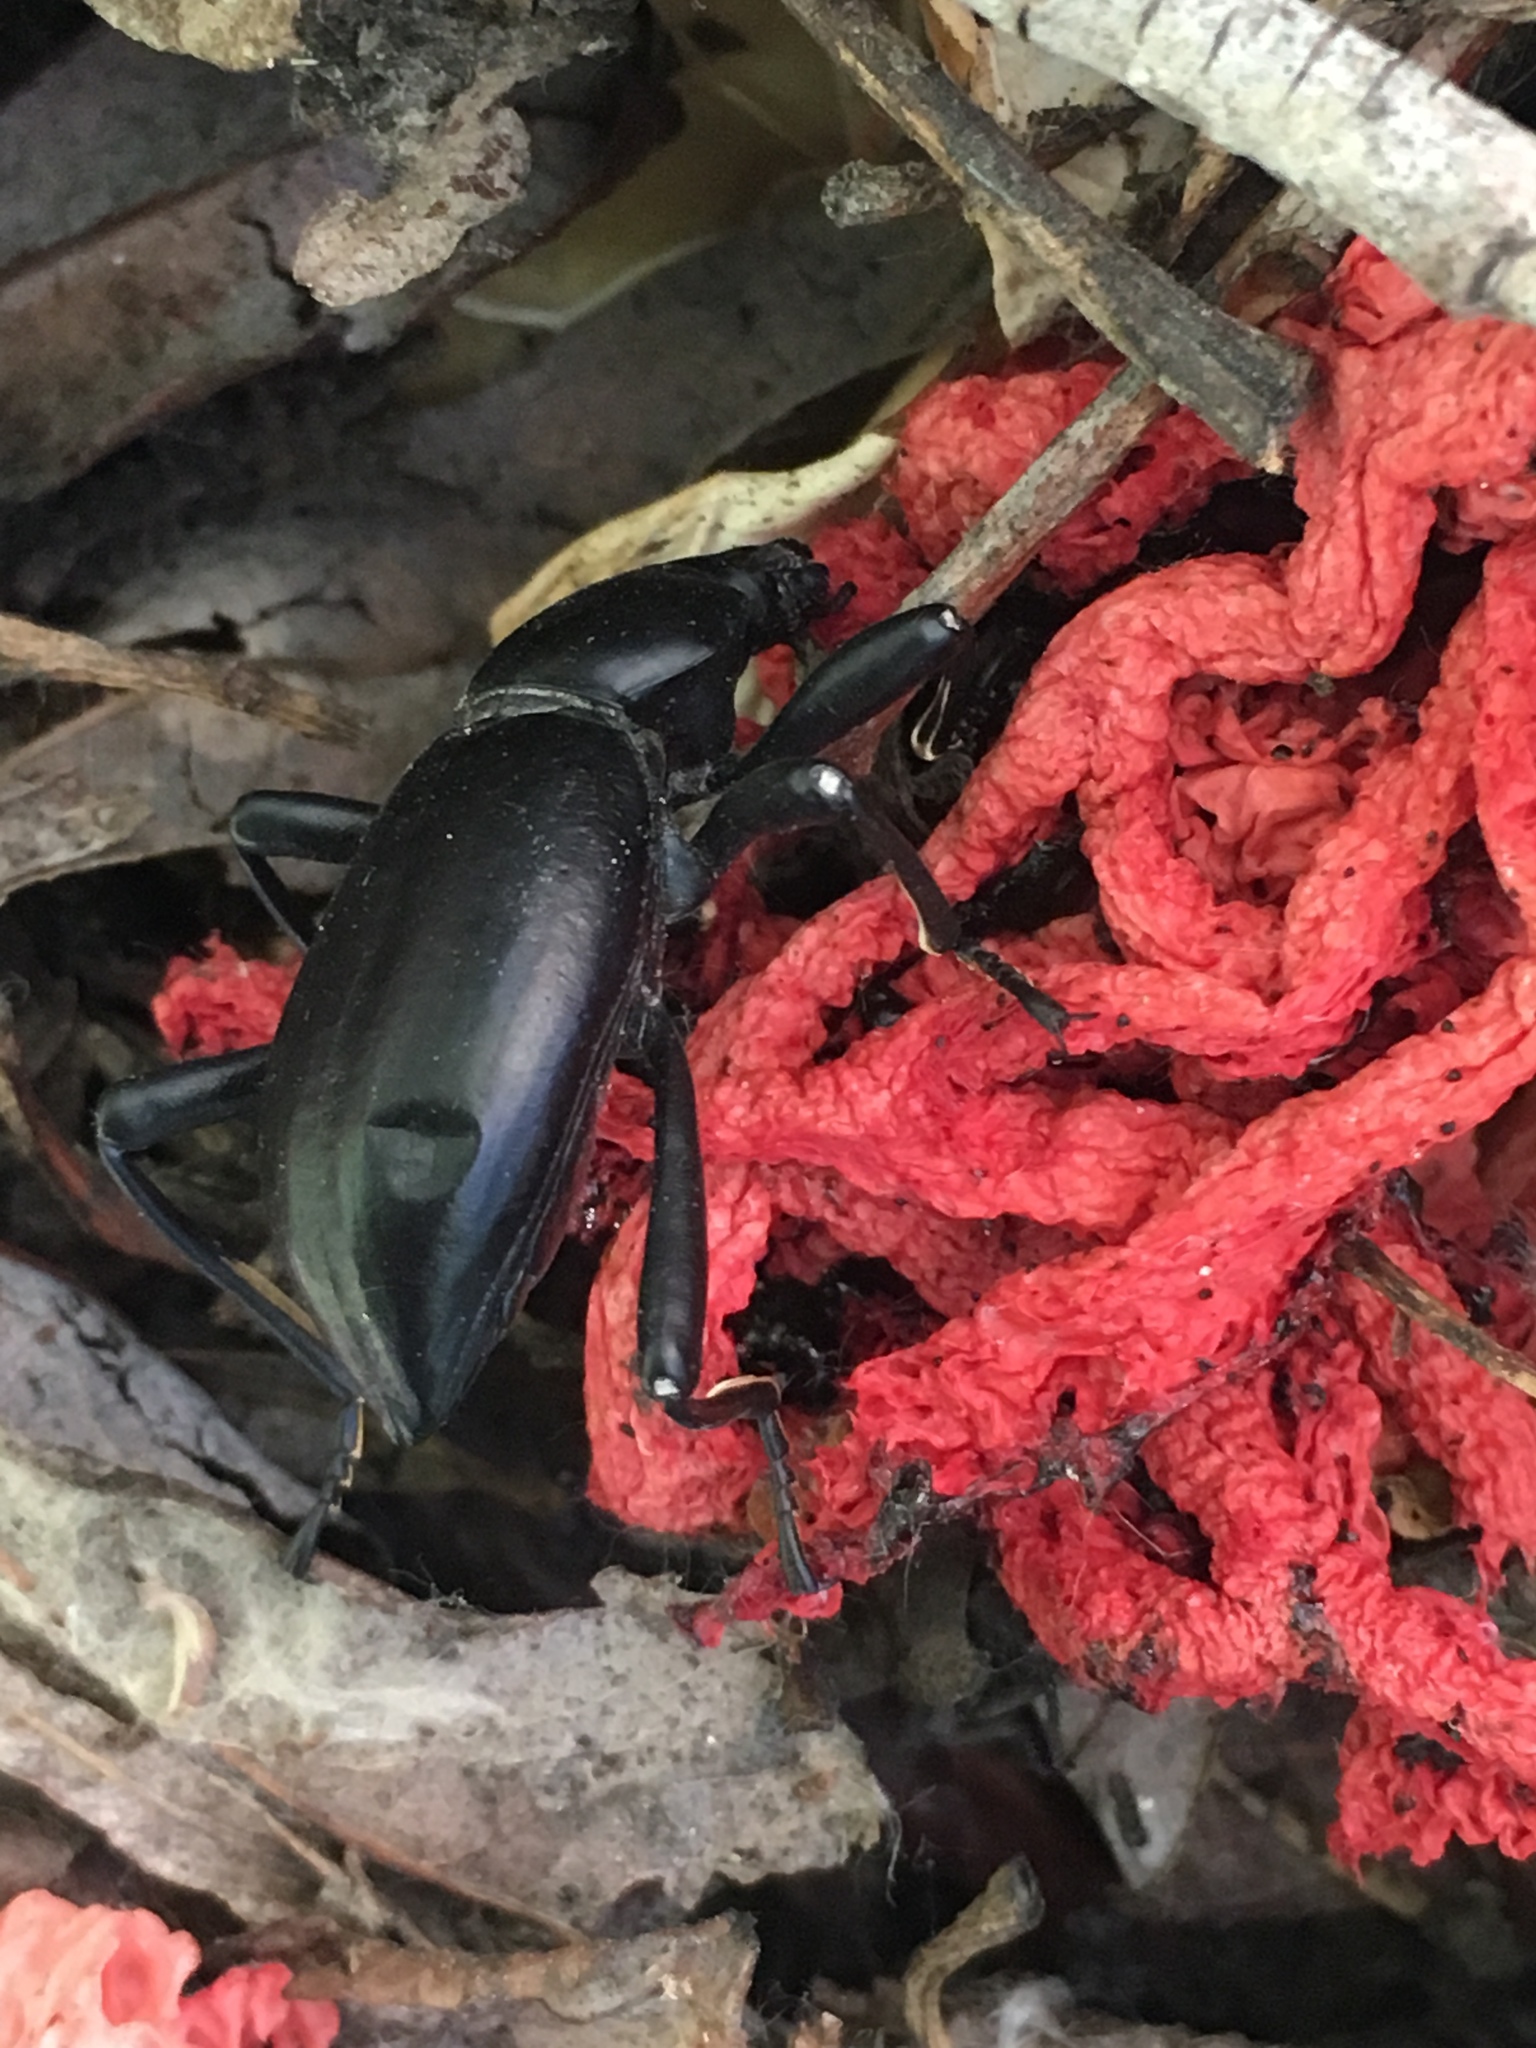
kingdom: Fungi
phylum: Basidiomycota
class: Agaricomycetes
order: Phallales
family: Phallaceae
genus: Clathrus
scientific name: Clathrus ruber
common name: Red cage
